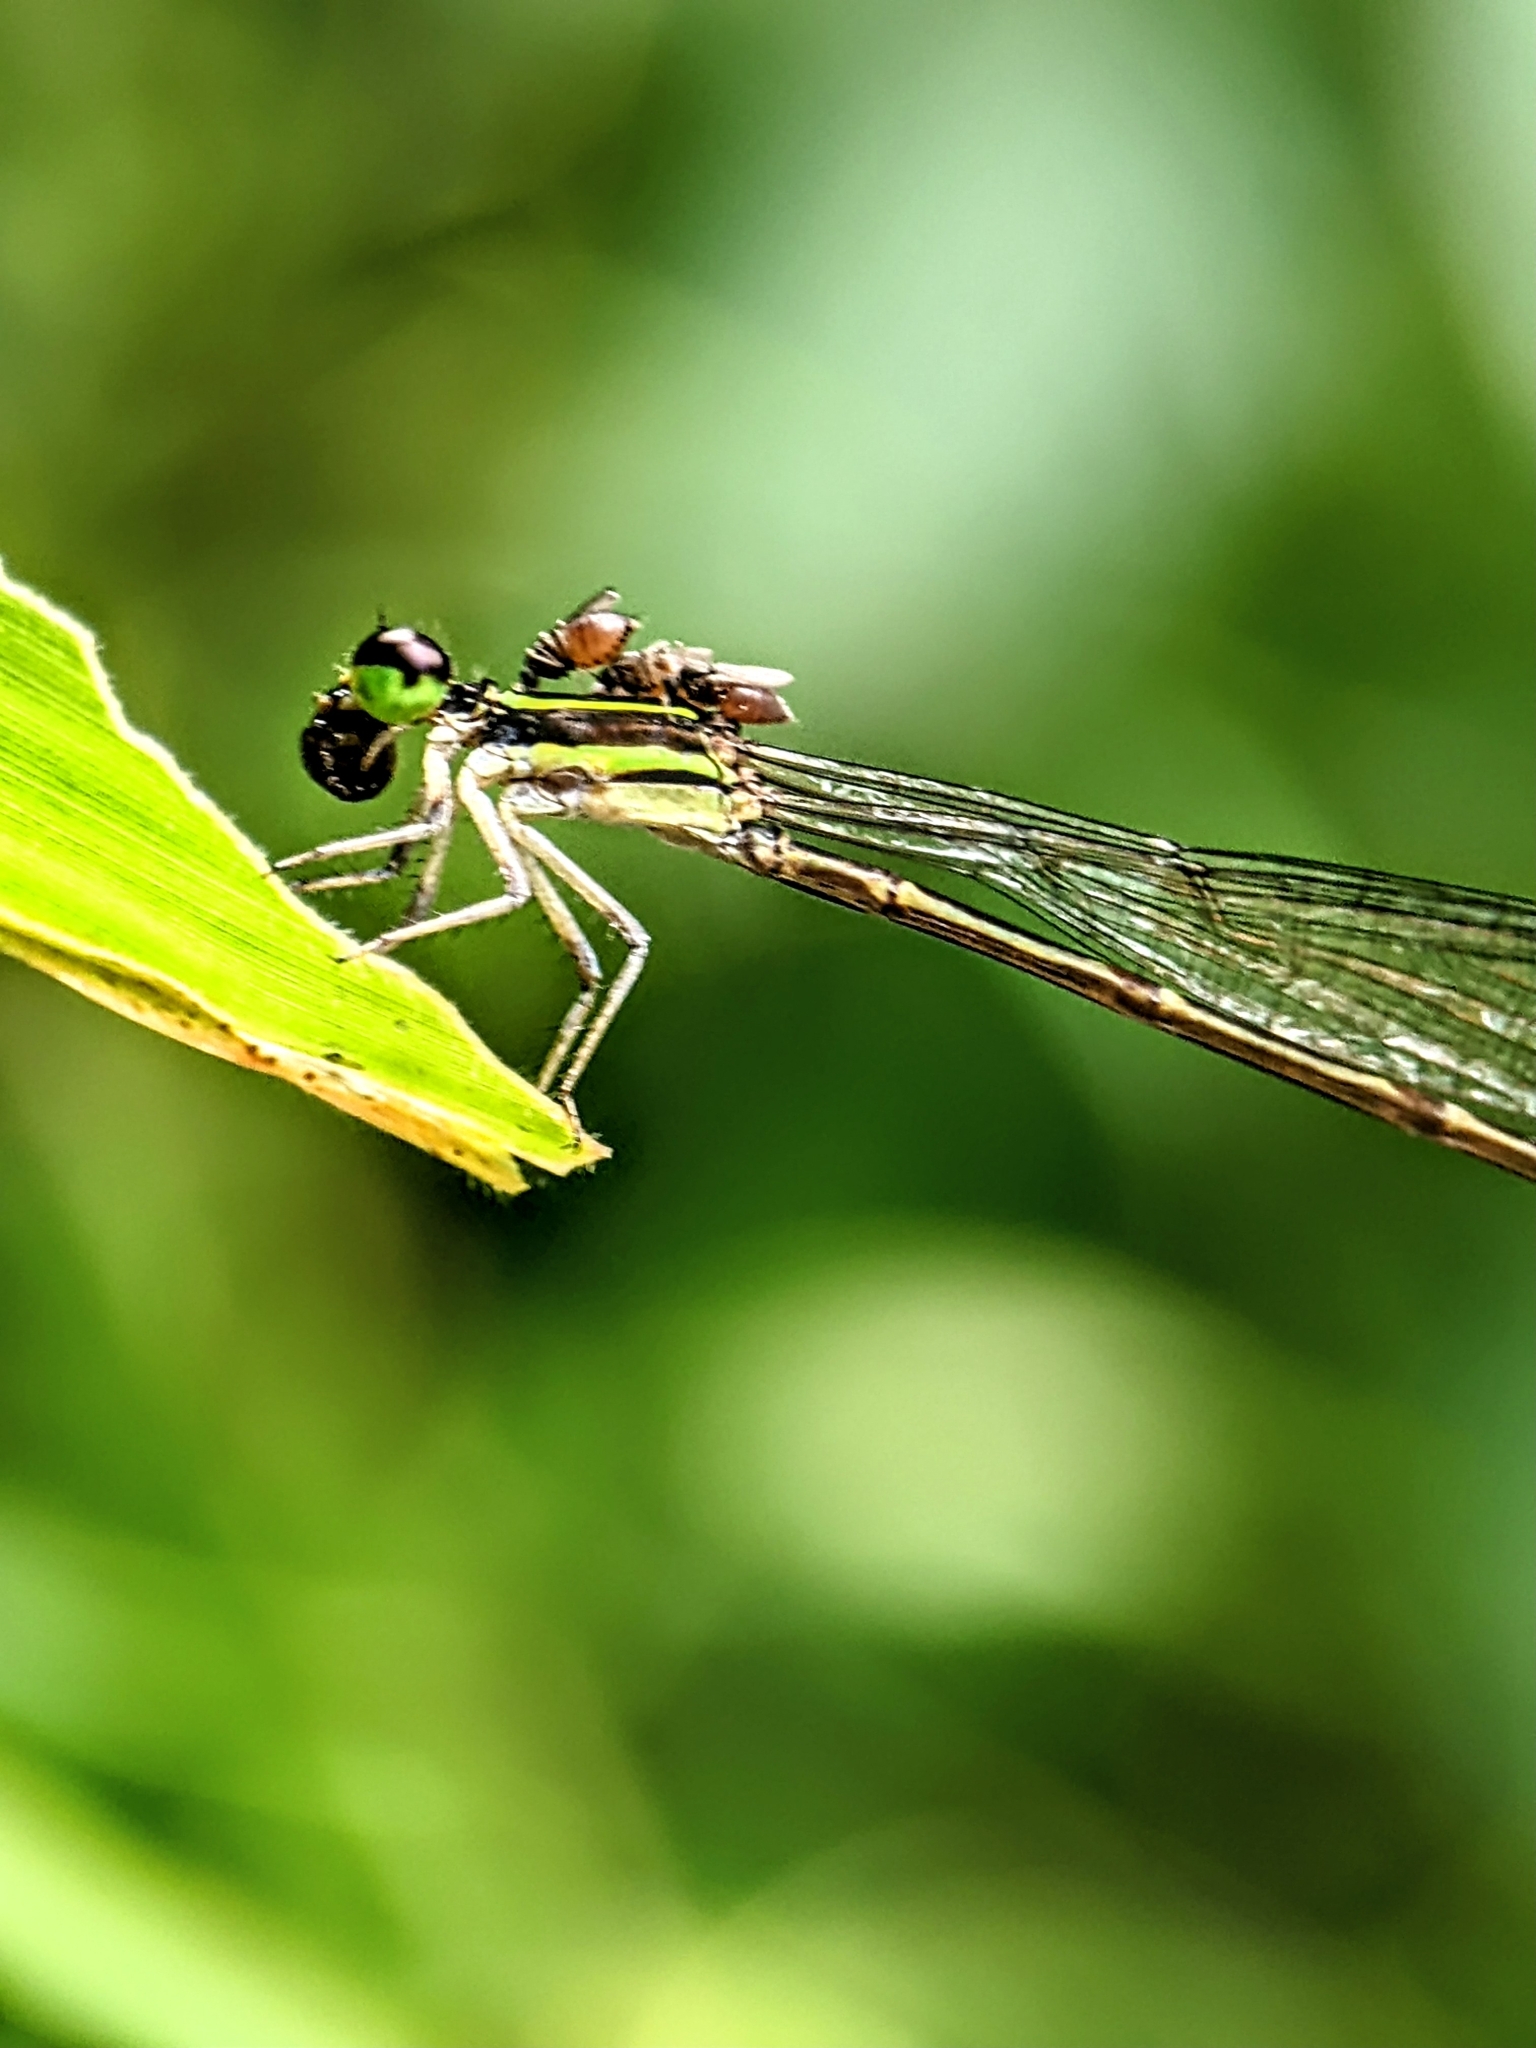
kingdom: Animalia
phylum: Arthropoda
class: Insecta
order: Odonata
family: Coenagrionidae
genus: Mortonagrion
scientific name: Mortonagrion aborense
